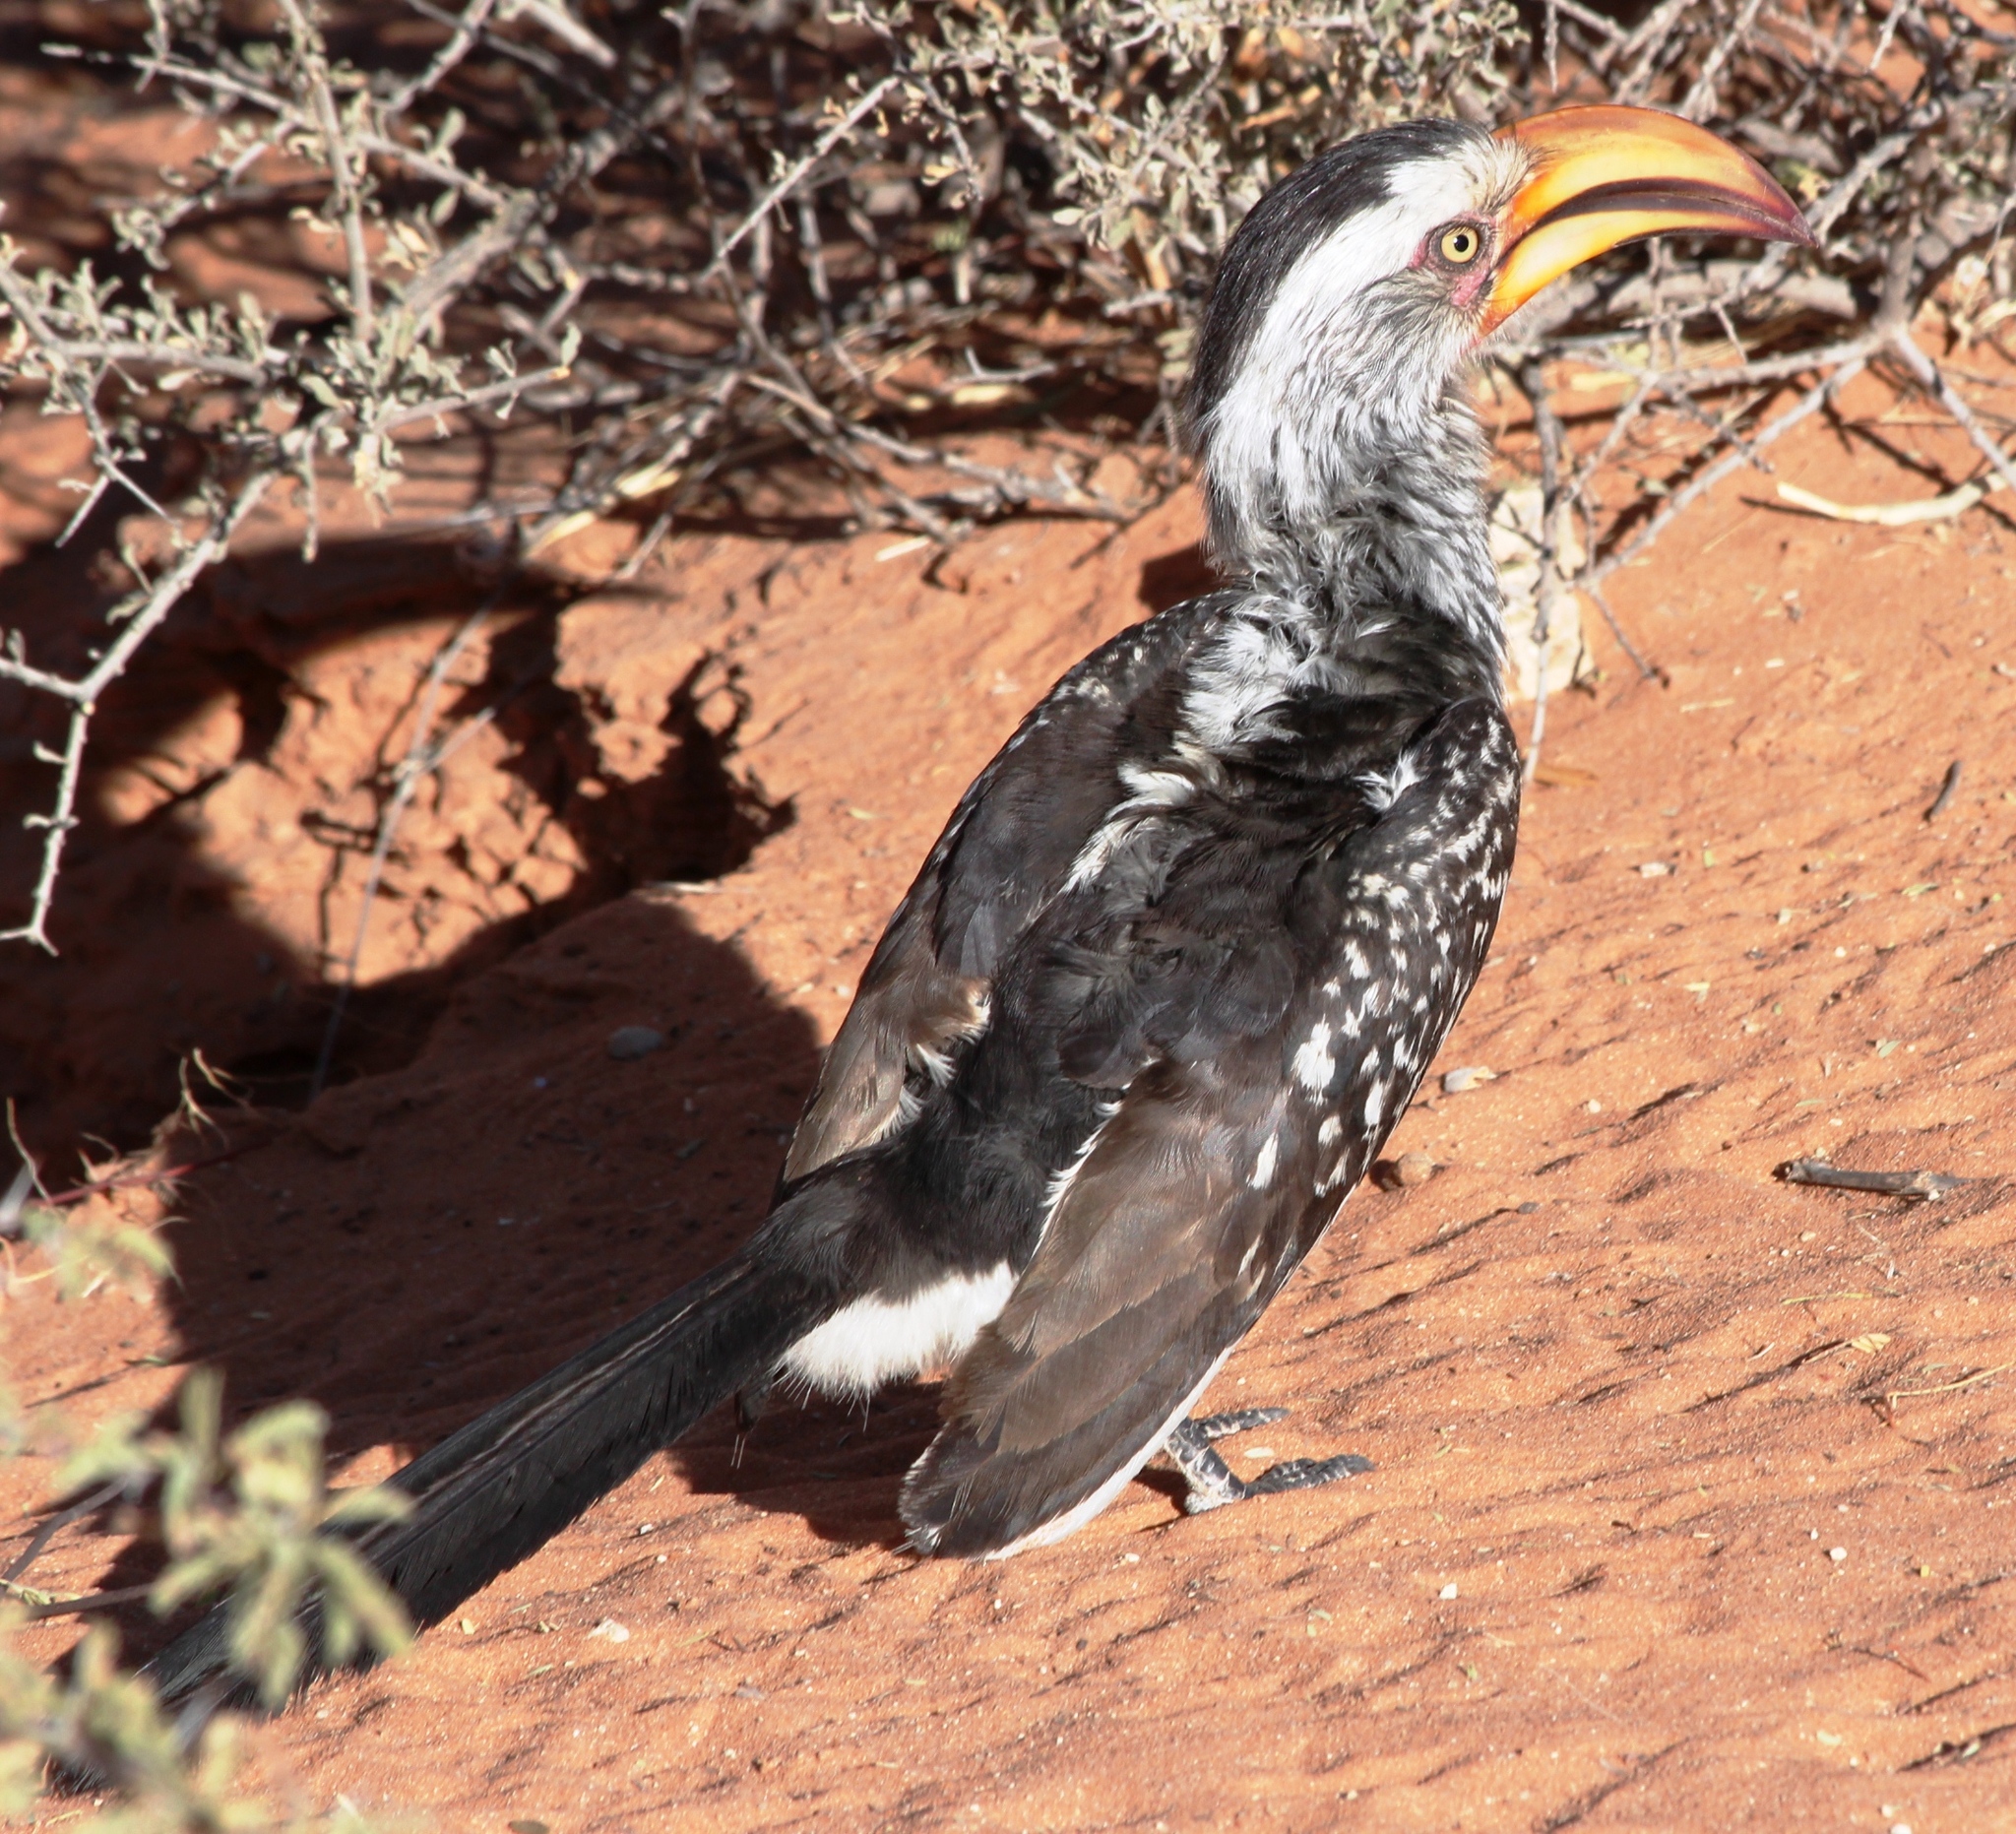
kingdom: Animalia
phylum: Chordata
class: Aves
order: Bucerotiformes
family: Bucerotidae
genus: Tockus
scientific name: Tockus leucomelas
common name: Southern yellow-billed hornbill
